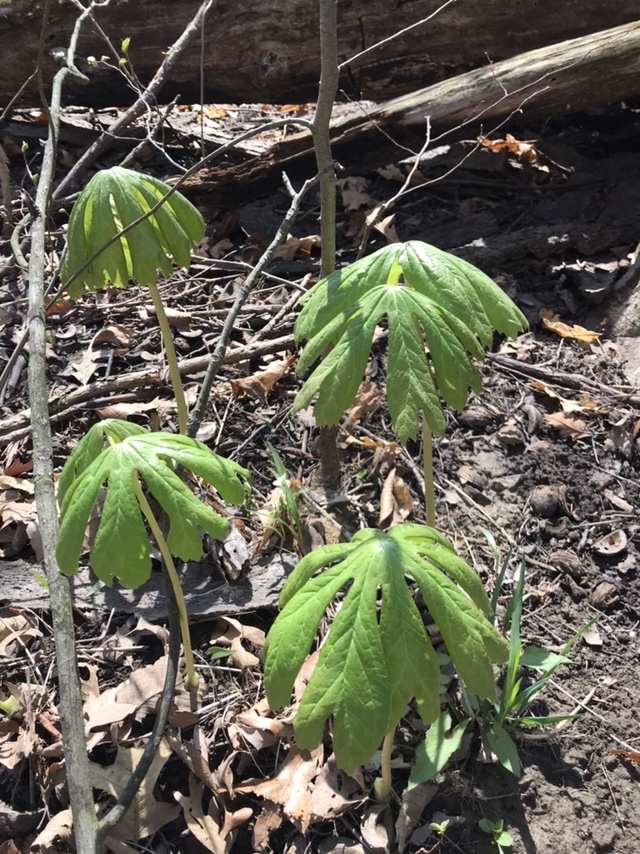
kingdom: Plantae
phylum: Tracheophyta
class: Magnoliopsida
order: Ranunculales
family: Berberidaceae
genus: Podophyllum
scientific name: Podophyllum peltatum
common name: Wild mandrake
